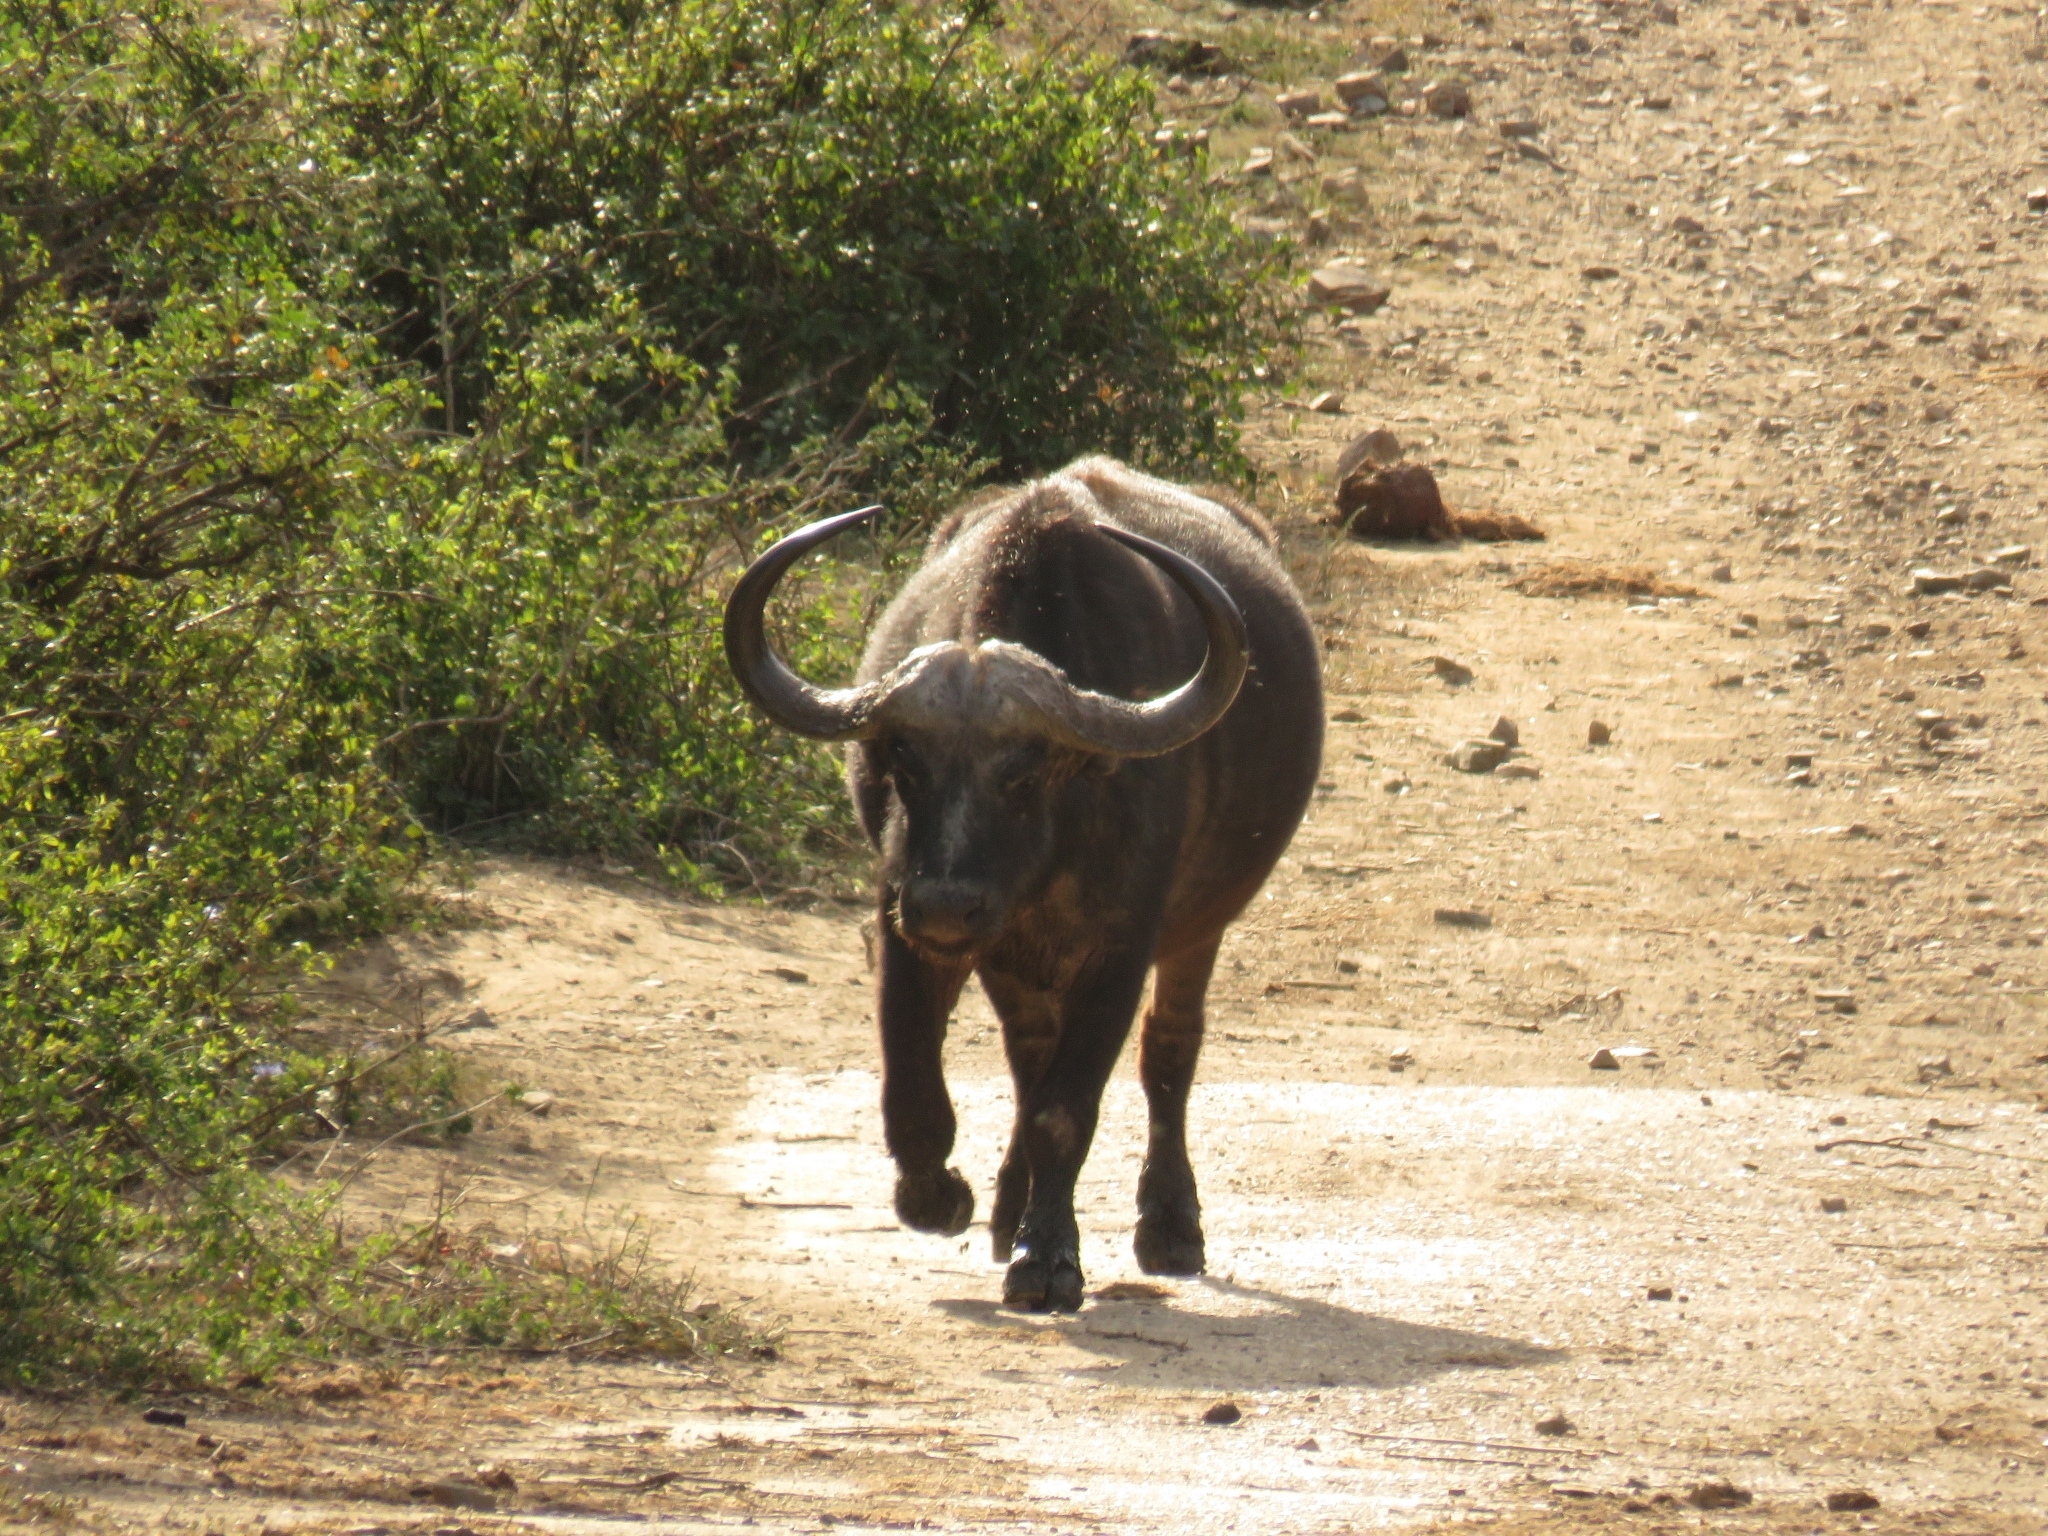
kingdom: Animalia
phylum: Chordata
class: Mammalia
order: Artiodactyla
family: Bovidae
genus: Syncerus
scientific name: Syncerus caffer
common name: African buffalo
